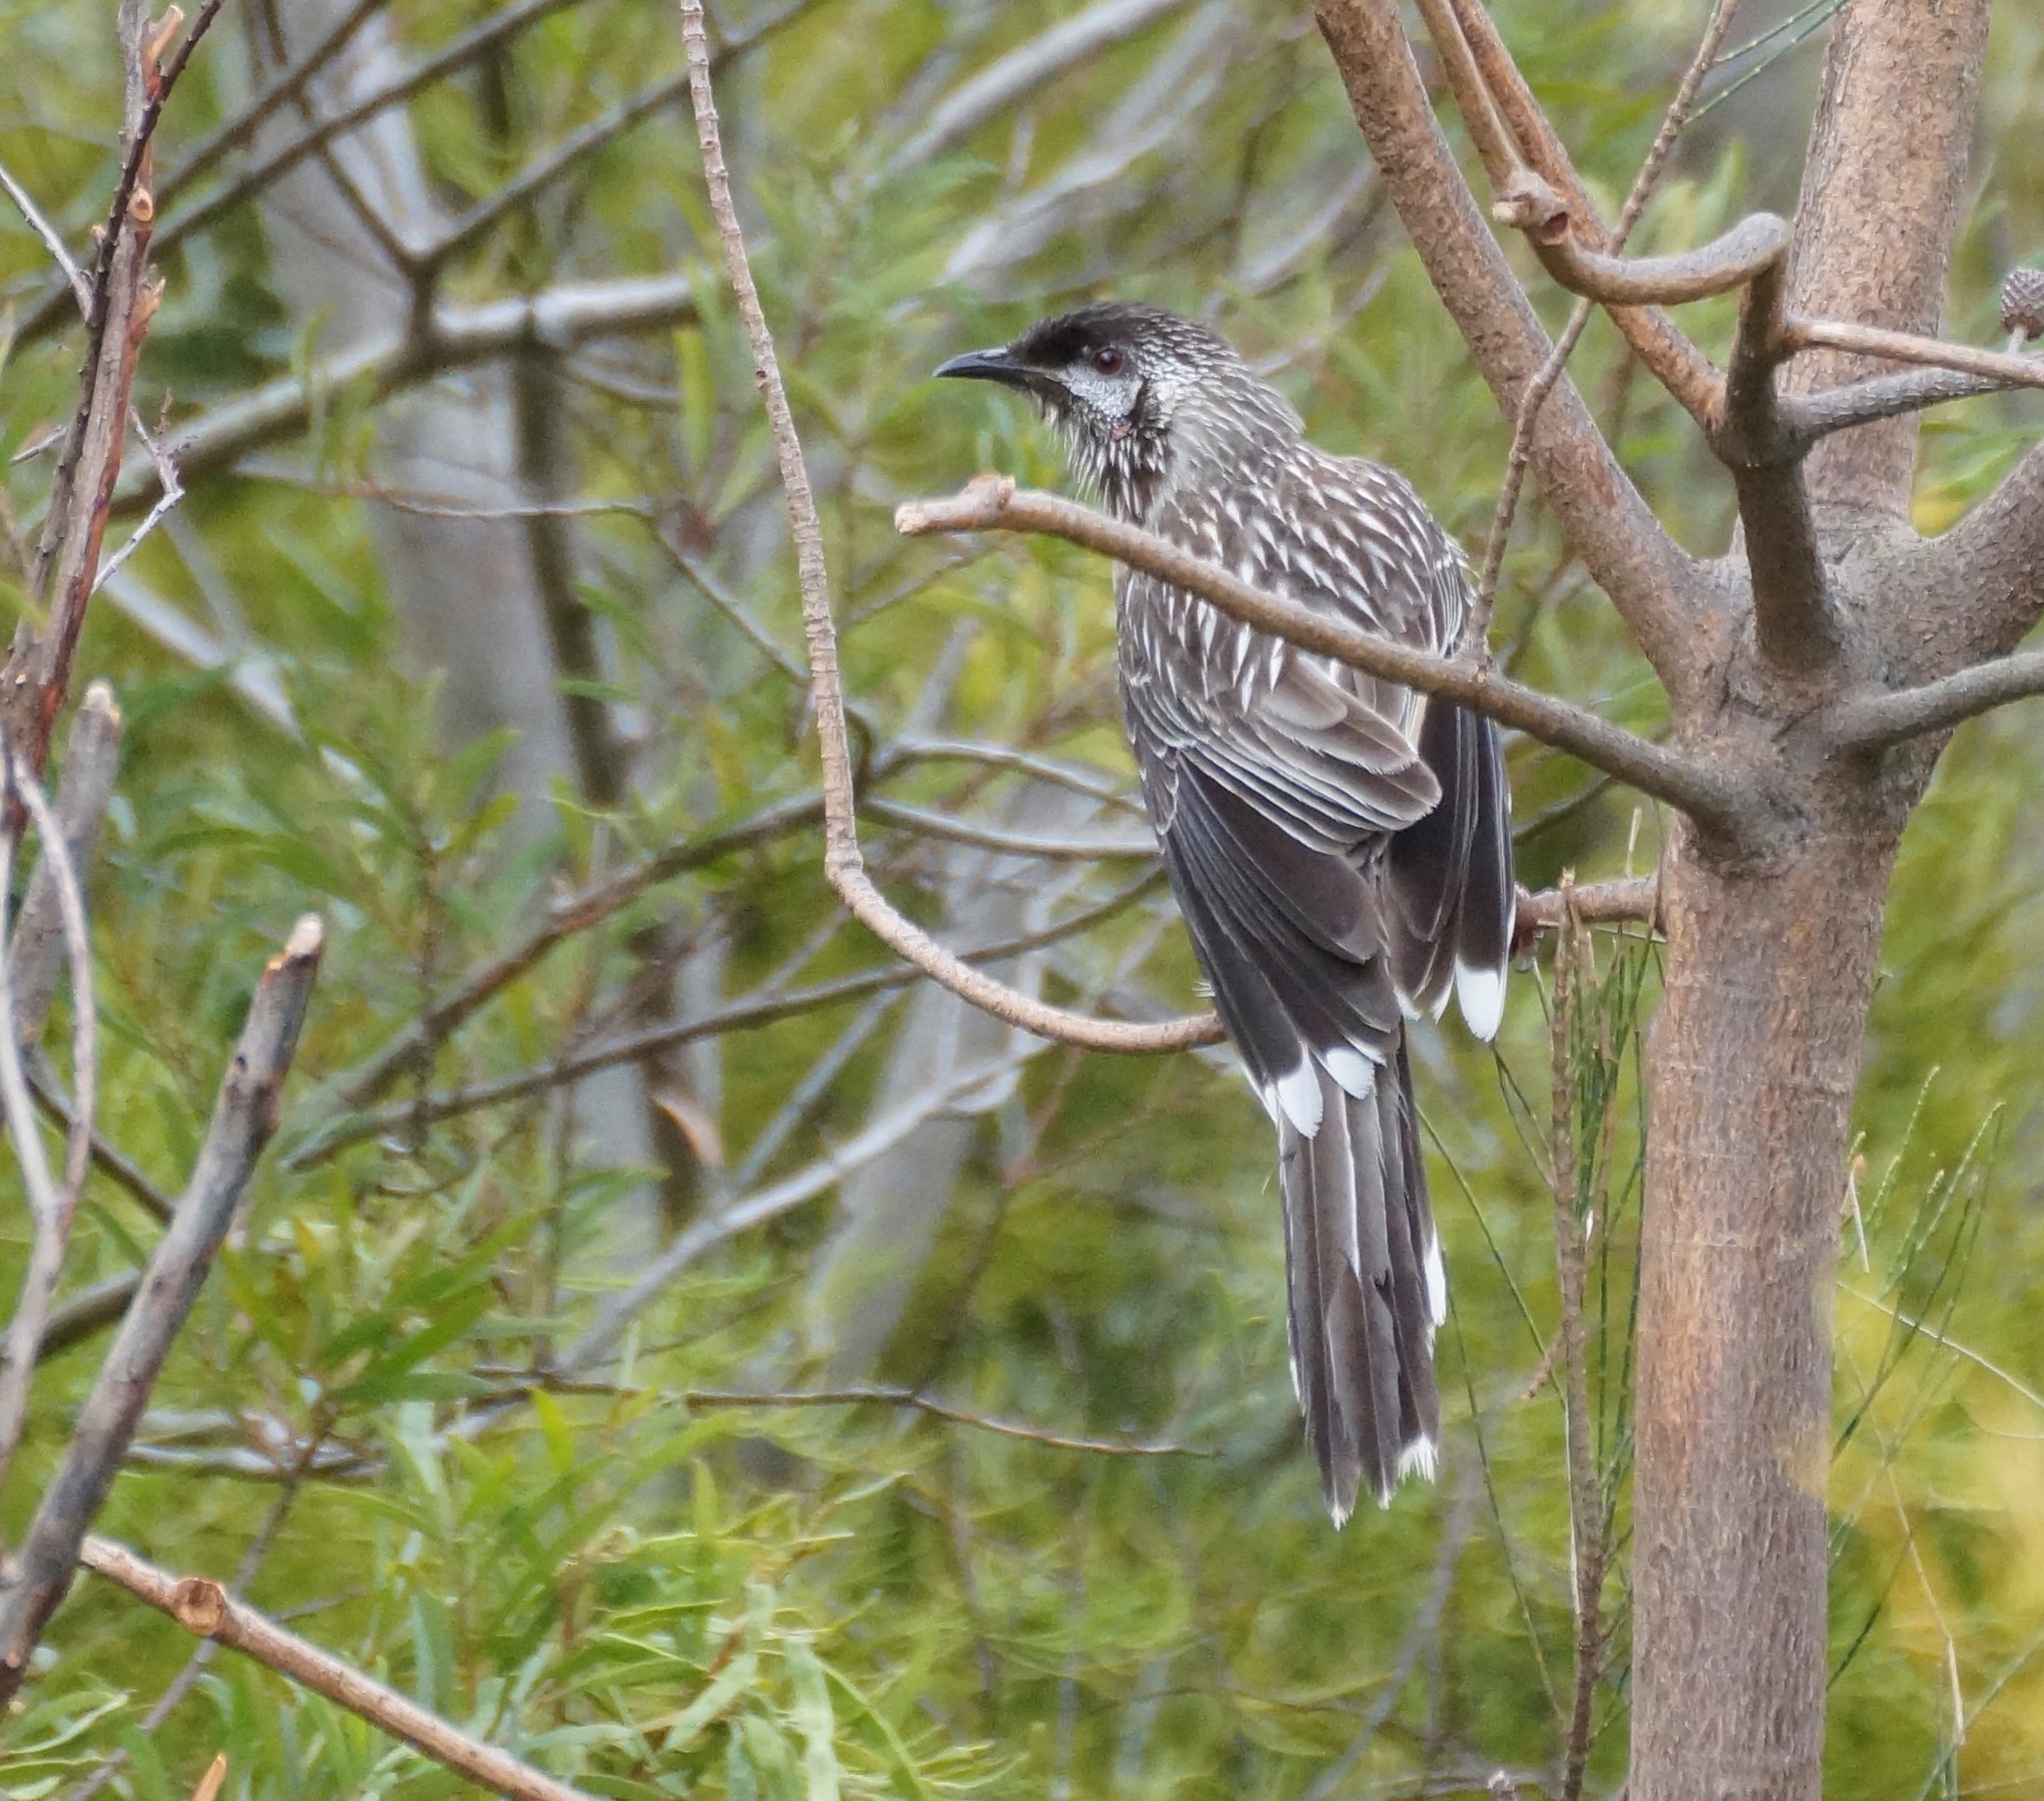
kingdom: Animalia
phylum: Chordata
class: Aves
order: Passeriformes
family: Meliphagidae
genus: Anthochaera
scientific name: Anthochaera carunculata
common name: Red wattlebird
